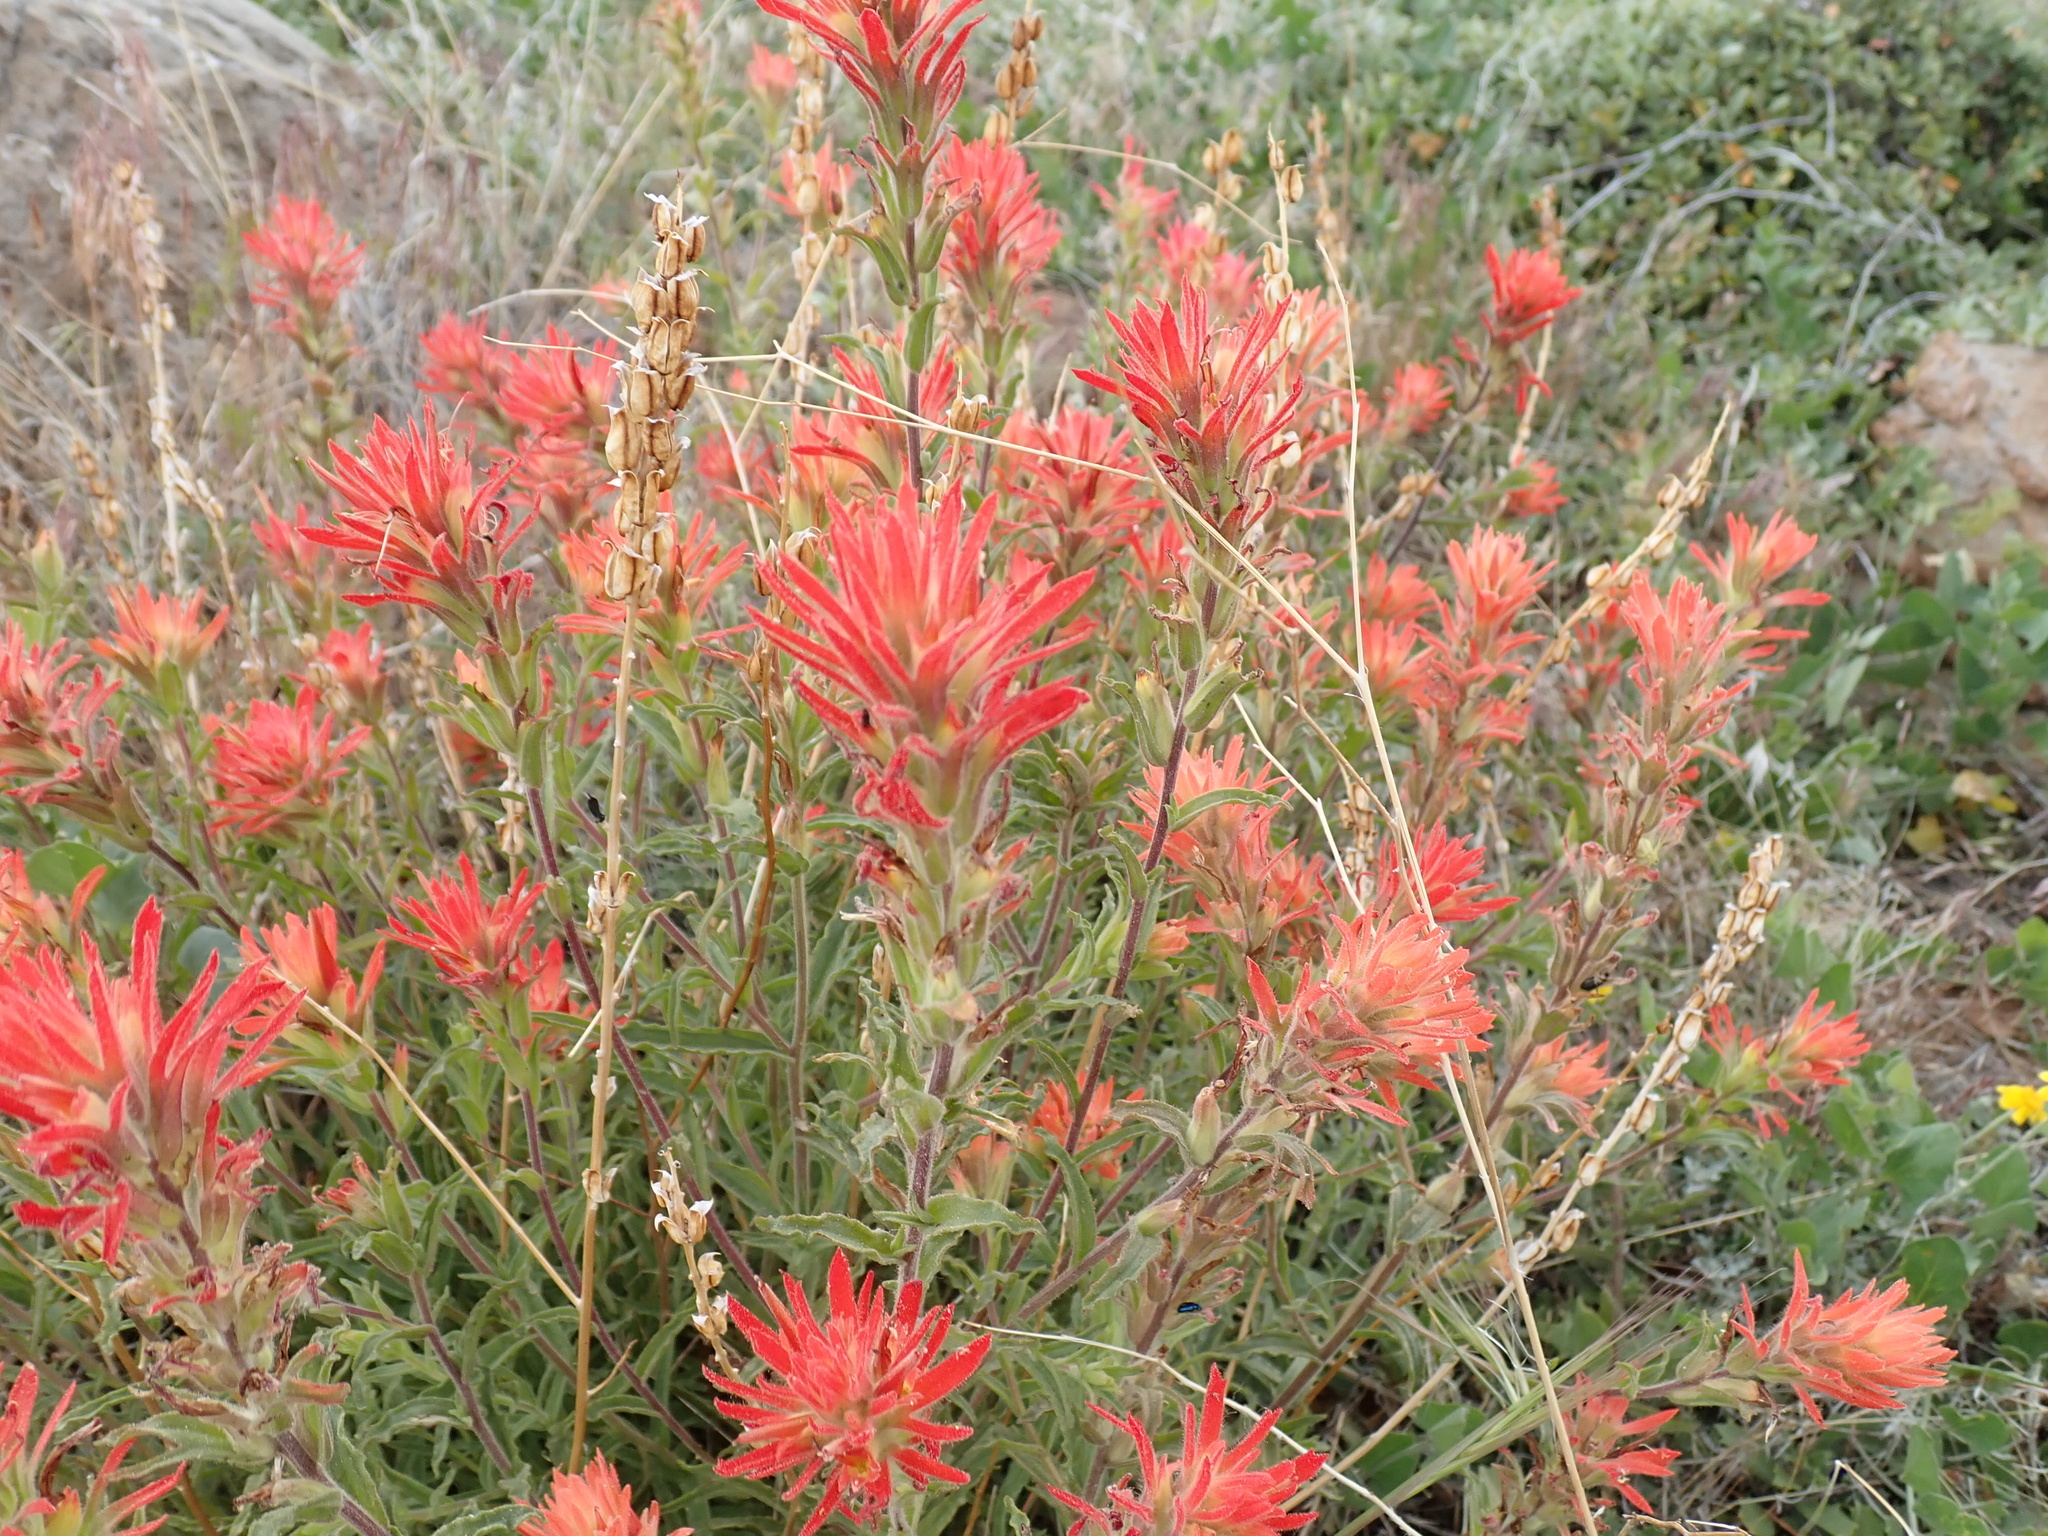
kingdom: Plantae
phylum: Tracheophyta
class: Magnoliopsida
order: Lamiales
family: Orobanchaceae
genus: Castilleja
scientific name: Castilleja applegatei
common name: Wavy-leaf paintbrush
